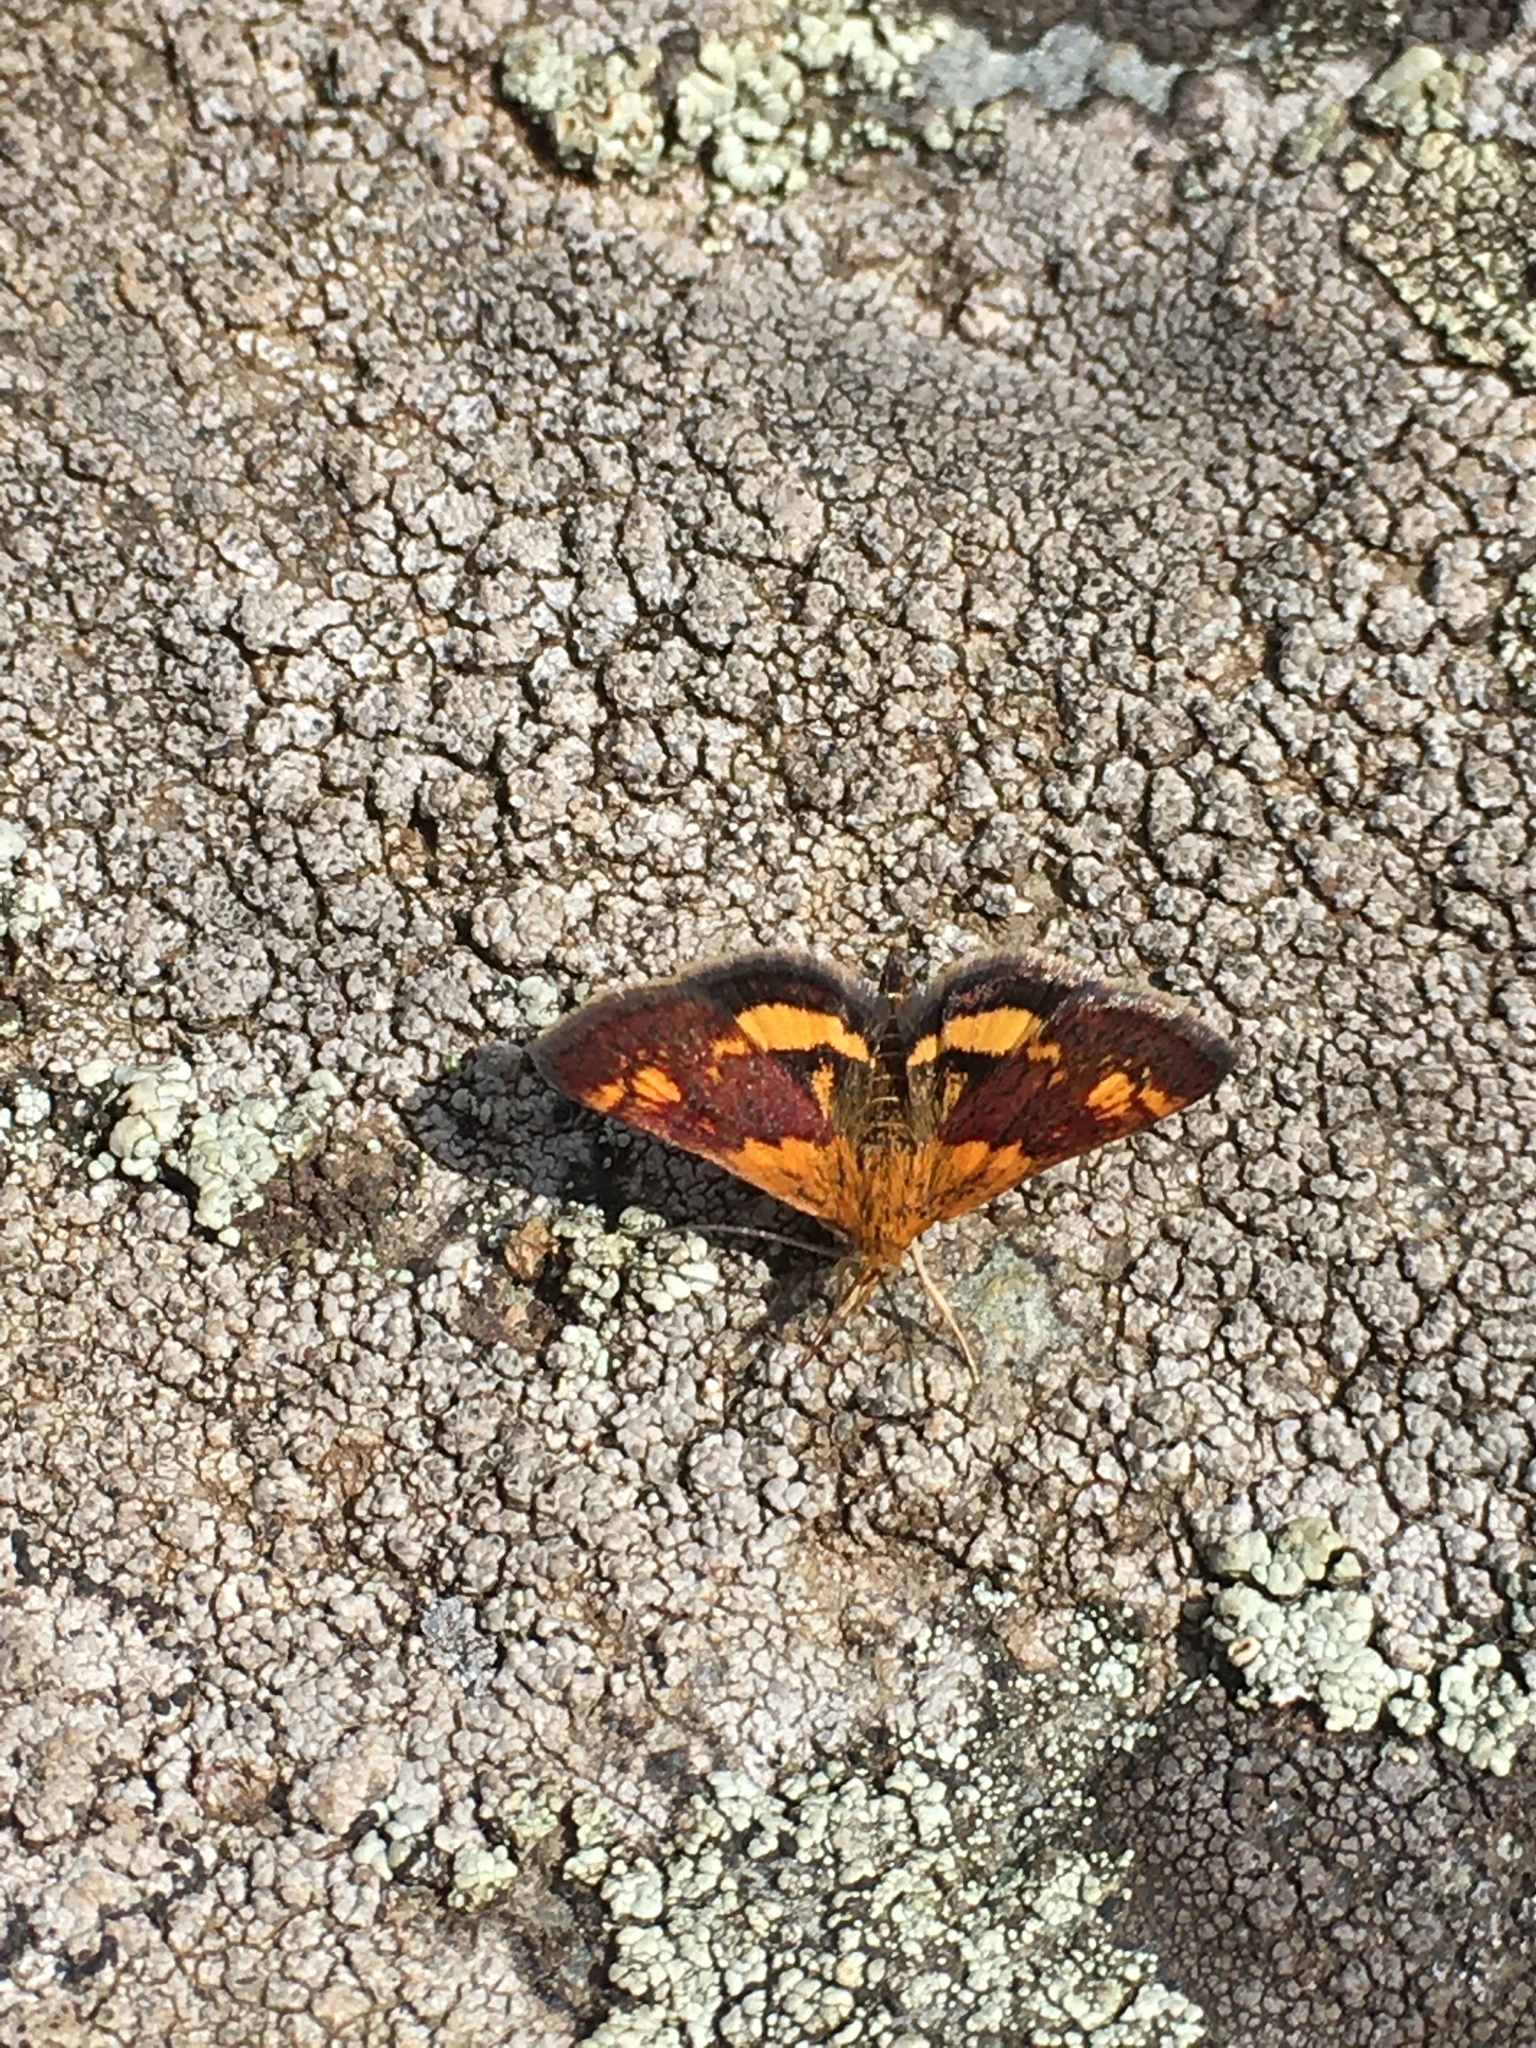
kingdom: Animalia
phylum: Arthropoda
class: Insecta
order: Lepidoptera
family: Crambidae
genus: Pyrausta
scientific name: Pyrausta orphisalis
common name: Orange mint moth
